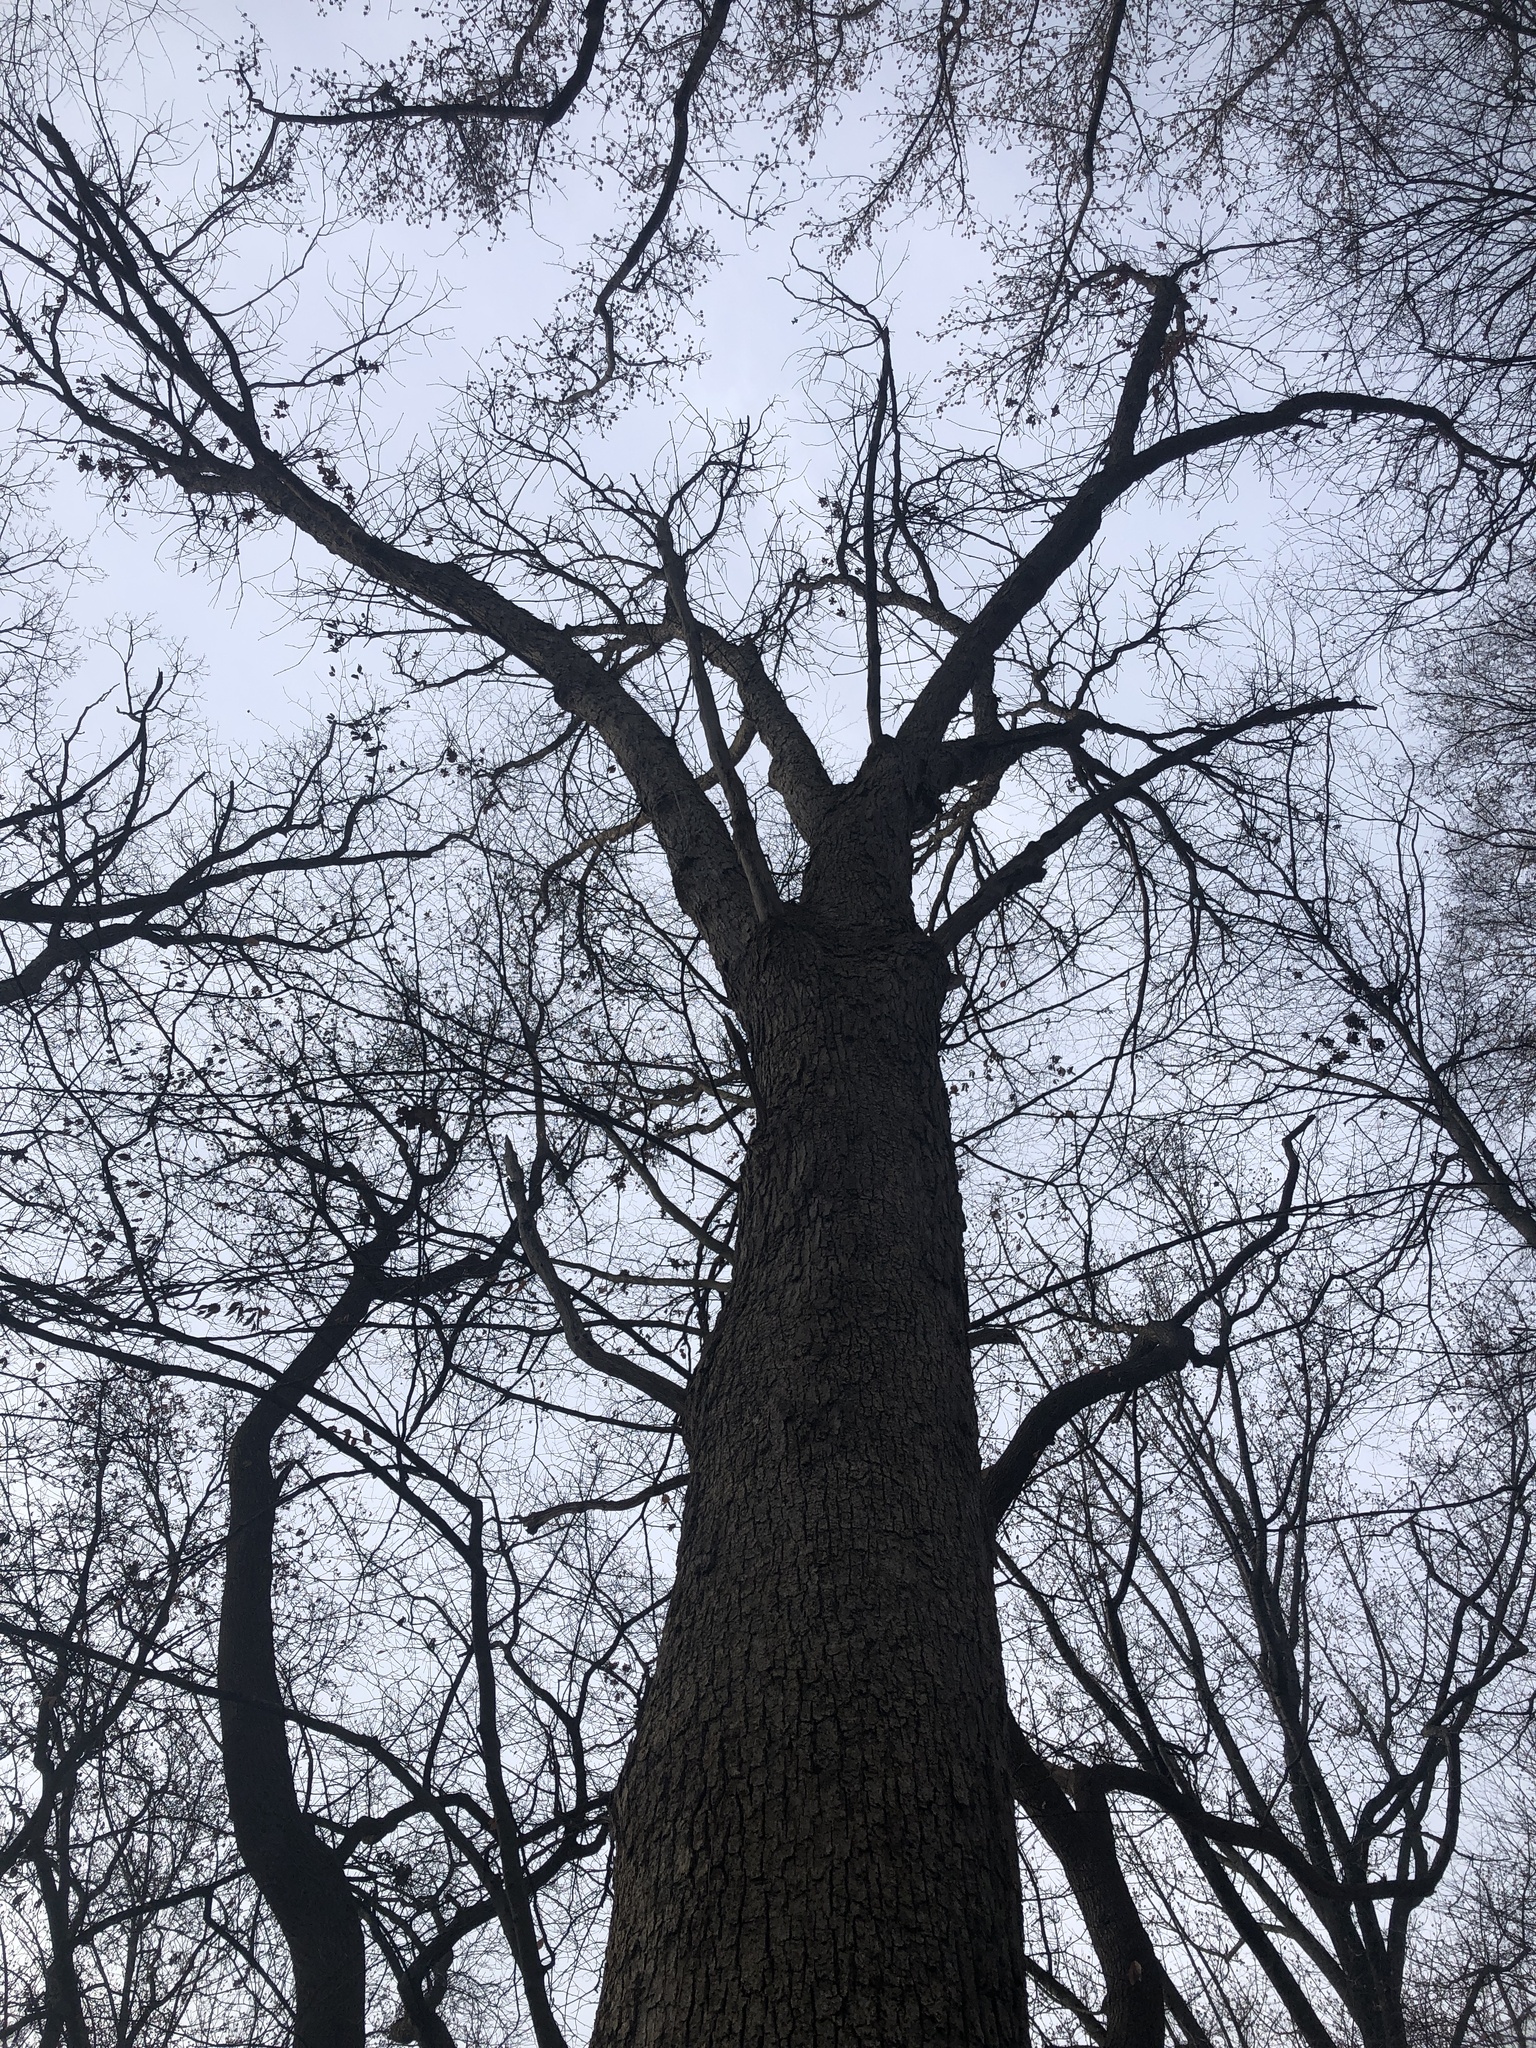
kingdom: Plantae
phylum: Tracheophyta
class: Magnoliopsida
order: Fagales
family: Fagaceae
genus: Quercus
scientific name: Quercus stellata
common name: Post oak
